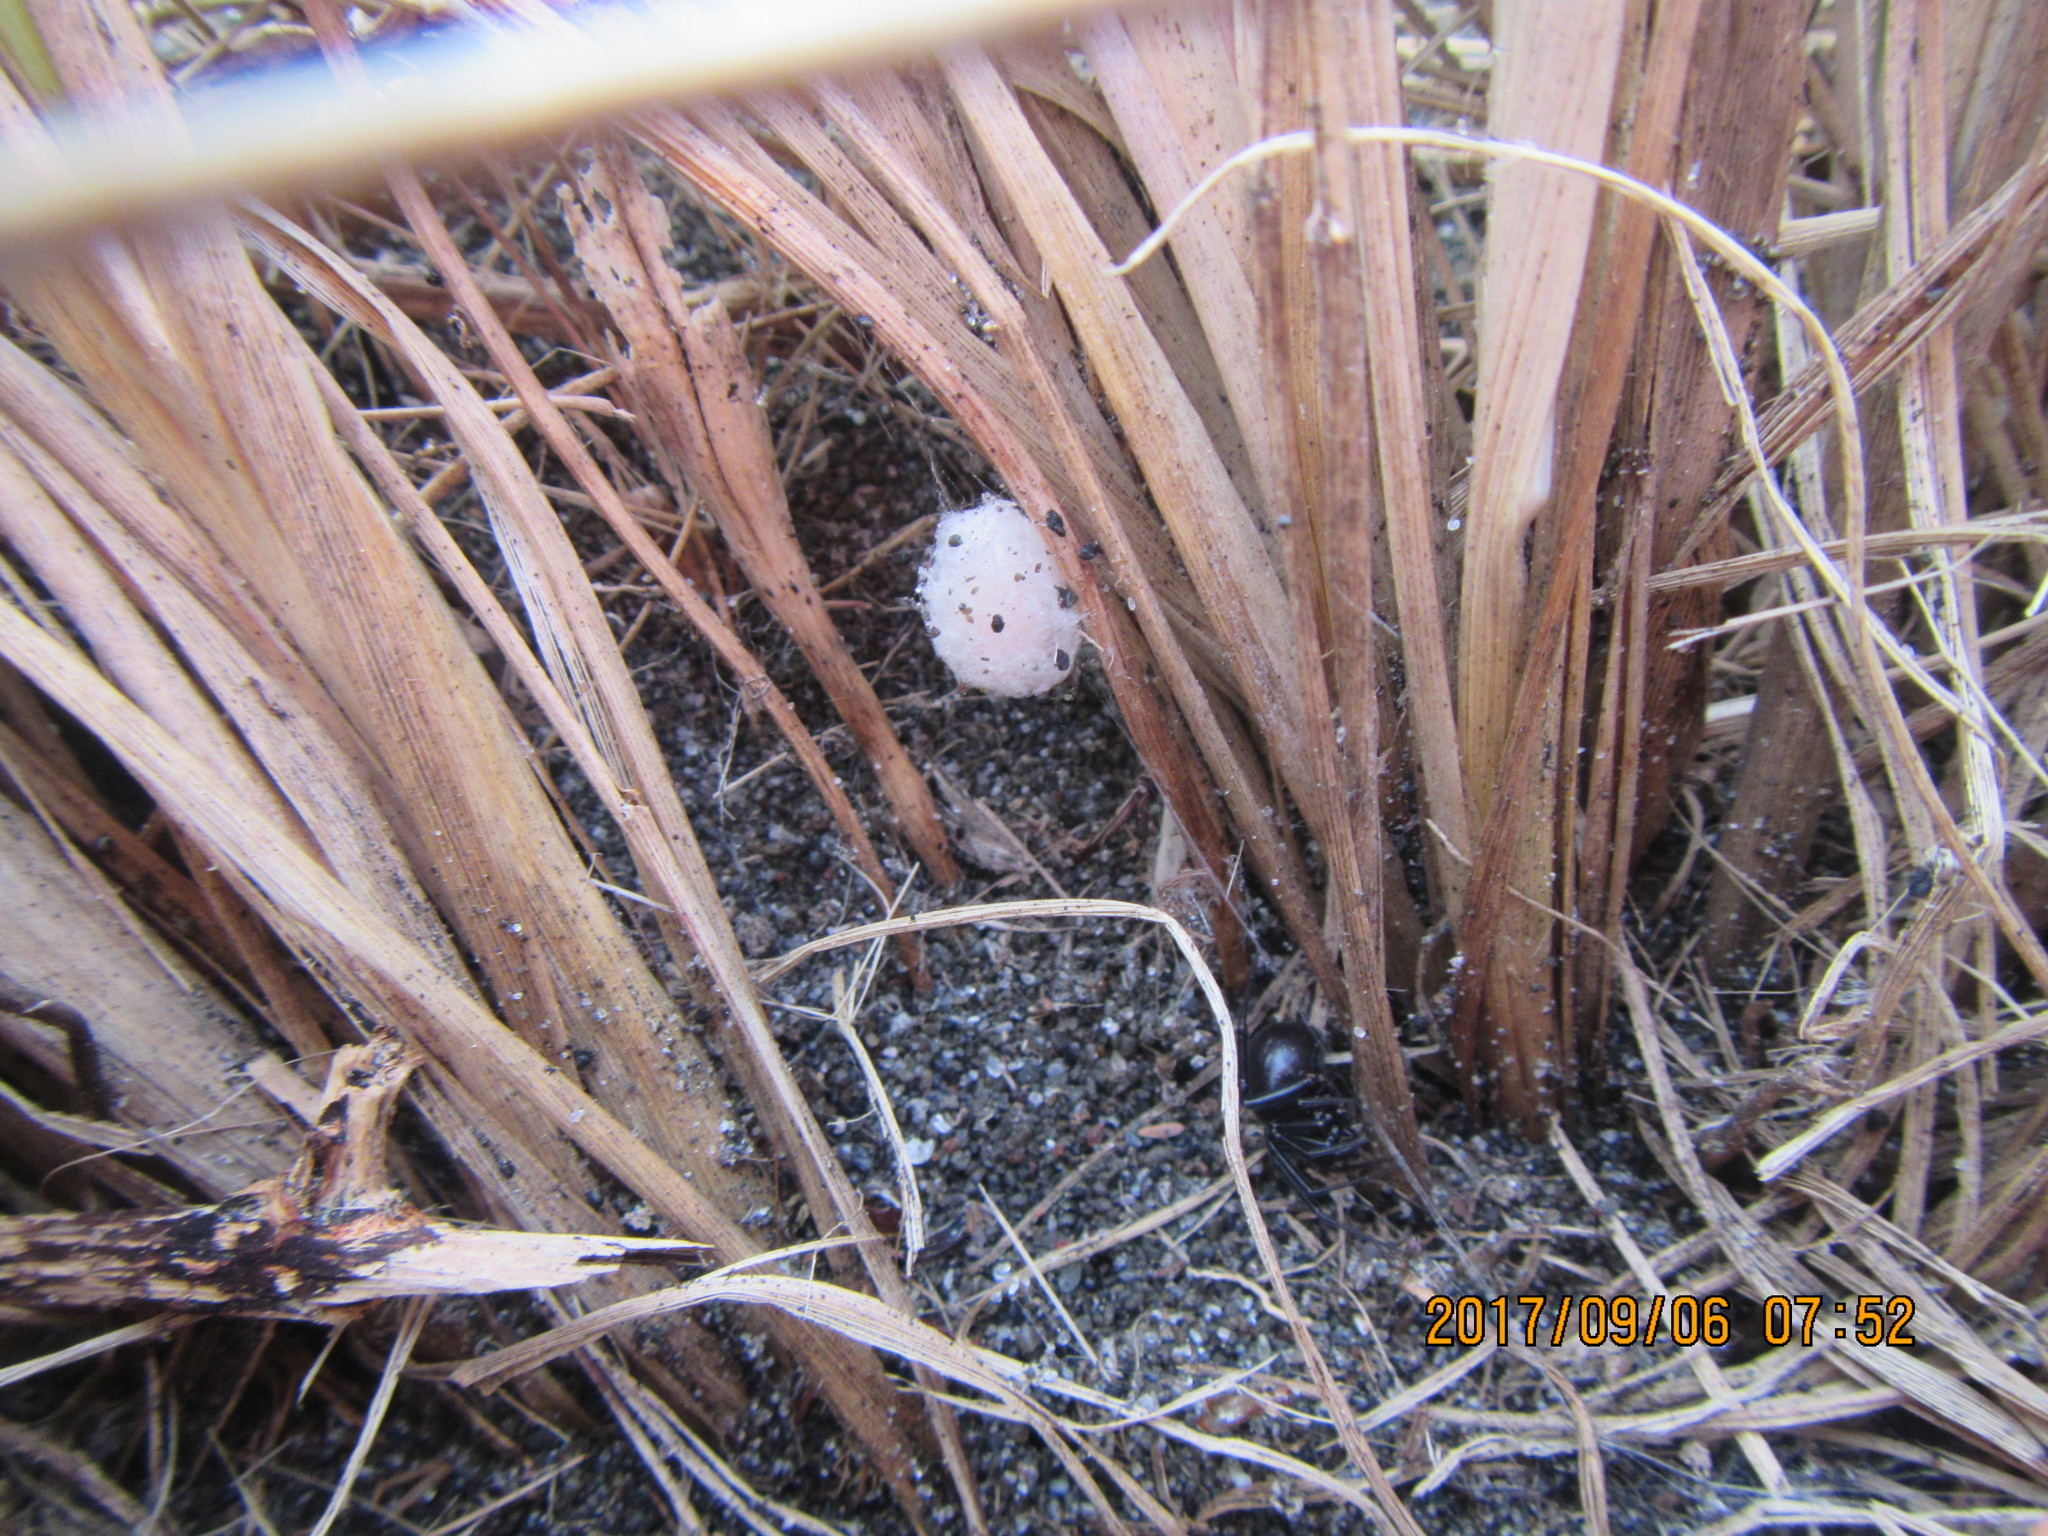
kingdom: Animalia
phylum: Arthropoda
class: Arachnida
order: Araneae
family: Theridiidae
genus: Steatoda
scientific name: Steatoda capensis
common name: Cobweb weaver
